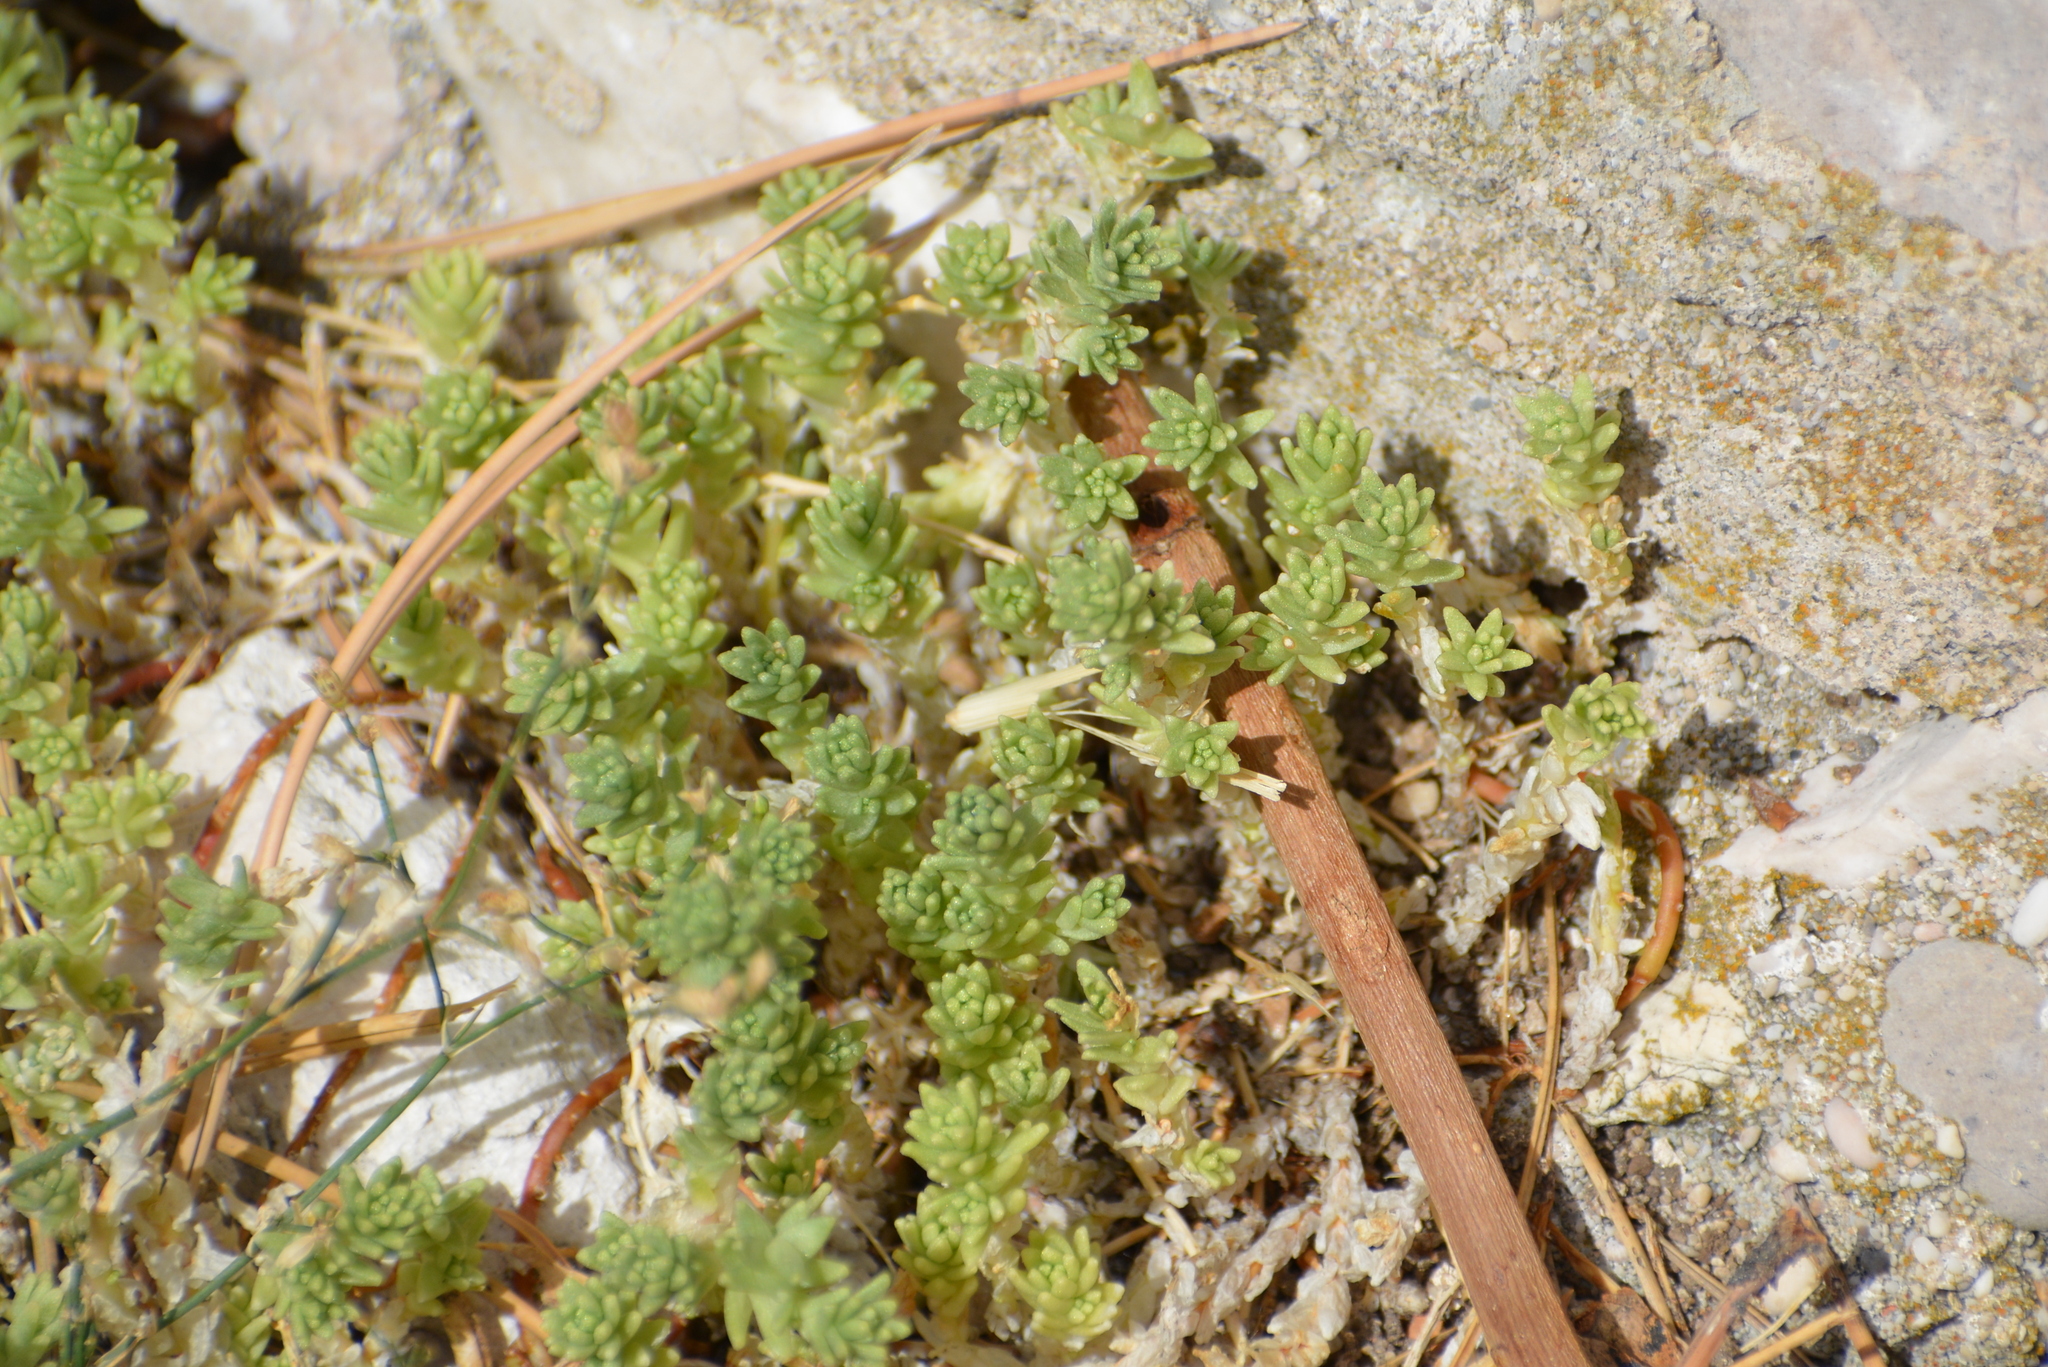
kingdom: Plantae
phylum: Tracheophyta
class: Magnoliopsida
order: Saxifragales
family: Crassulaceae
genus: Sedum
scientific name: Sedum acre
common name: Biting stonecrop
